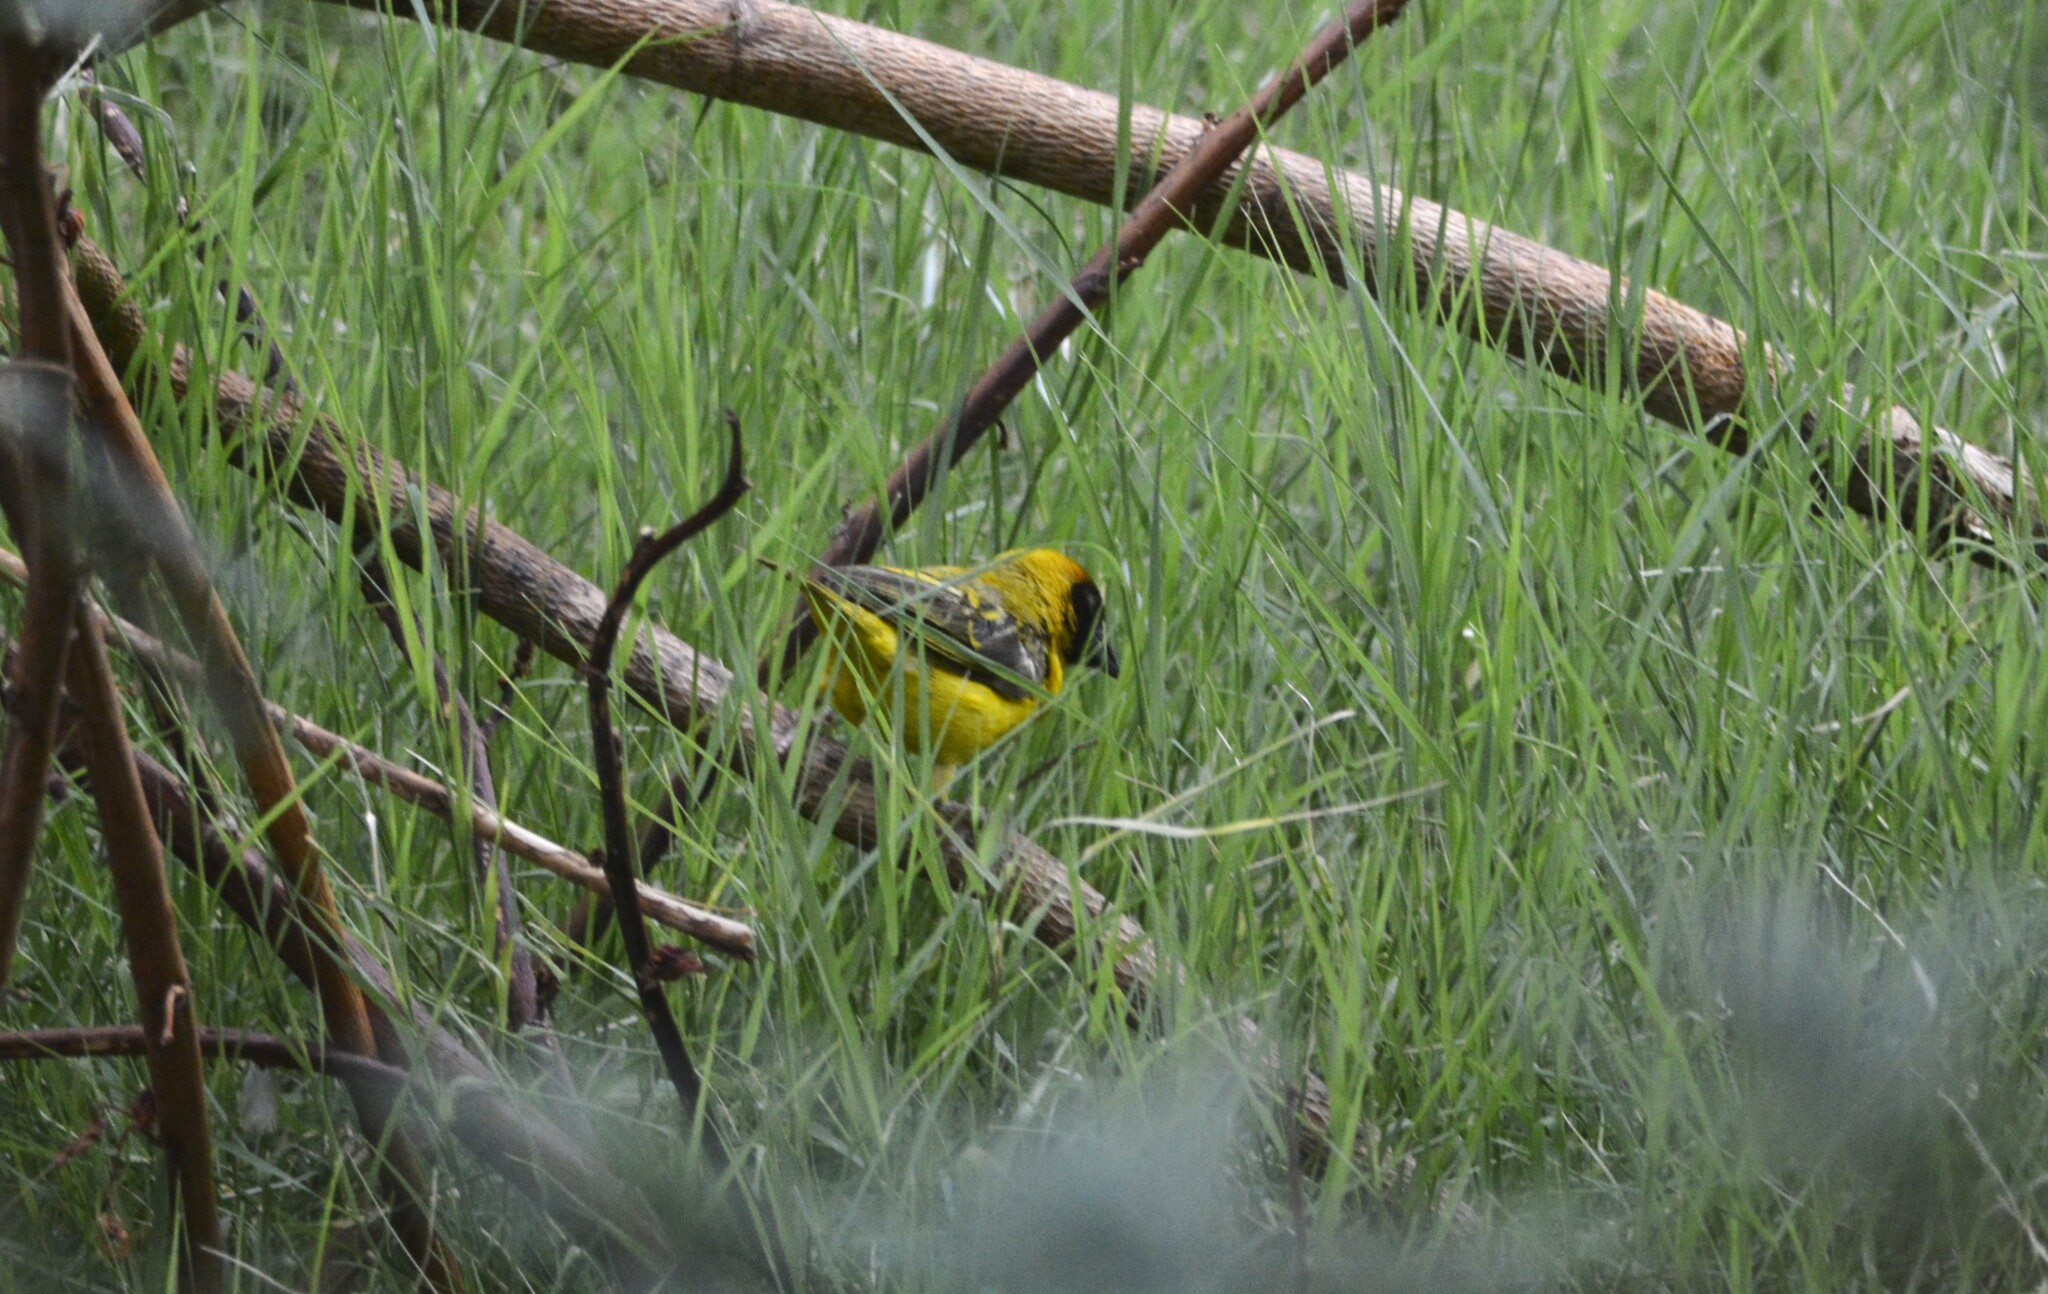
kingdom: Animalia
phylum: Chordata
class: Aves
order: Passeriformes
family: Ploceidae
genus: Ploceus
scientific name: Ploceus vitellinus
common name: Vitelline masked weaver
